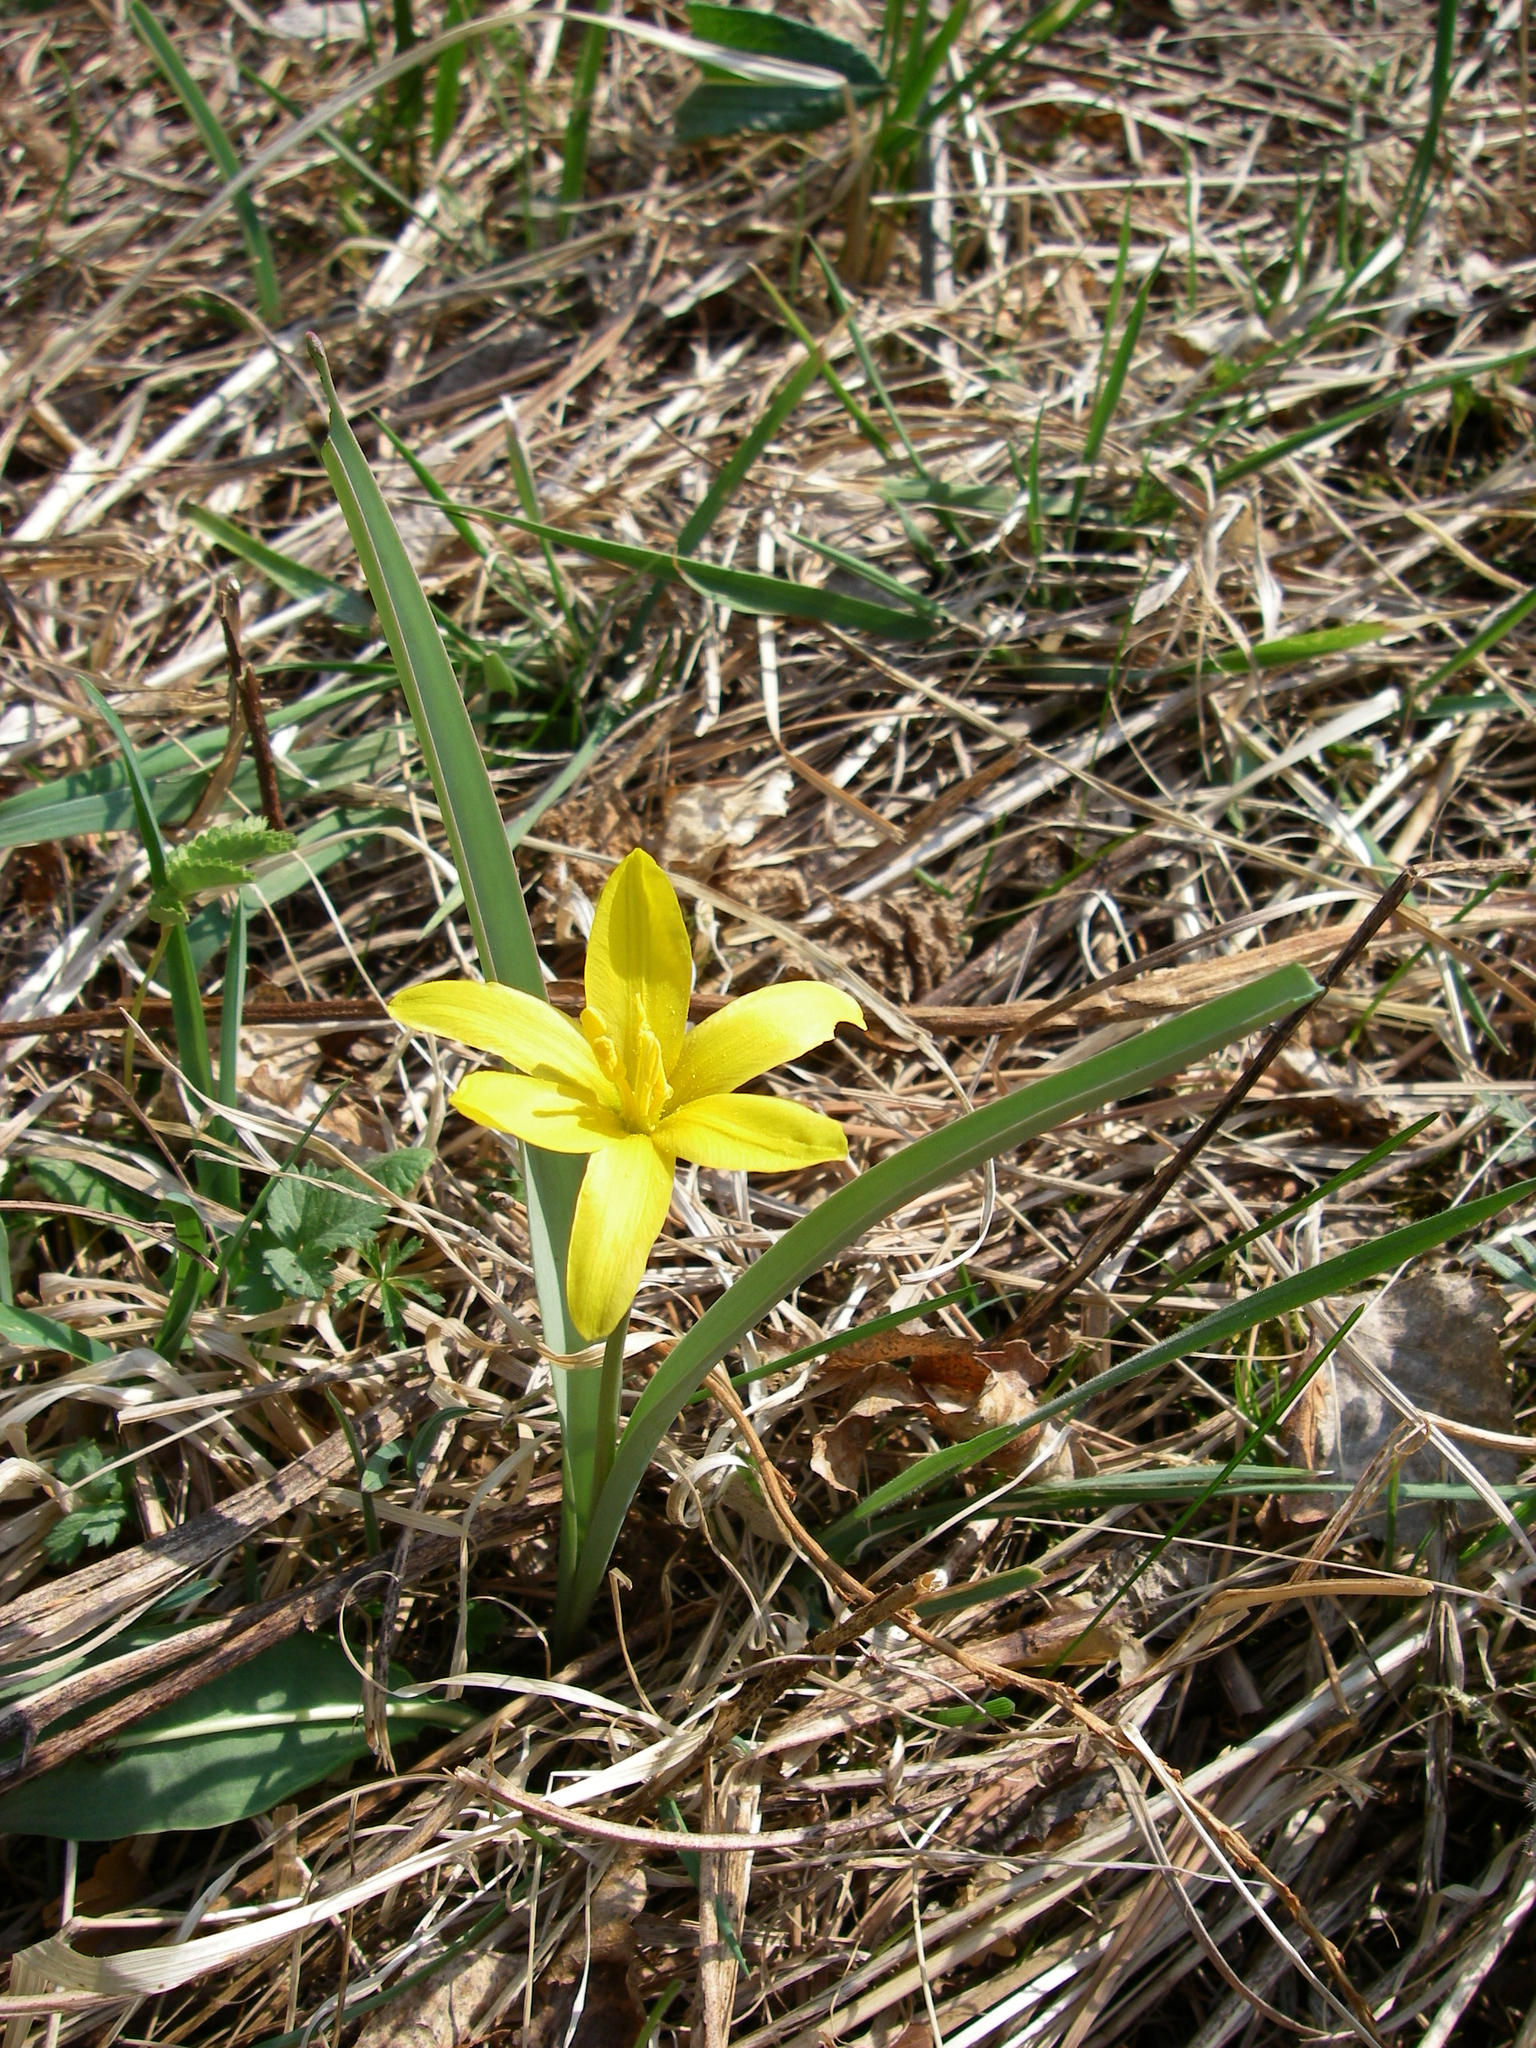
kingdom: Plantae
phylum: Tracheophyta
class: Liliopsida
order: Liliales
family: Liliaceae
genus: Tulipa
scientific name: Tulipa uniflora
